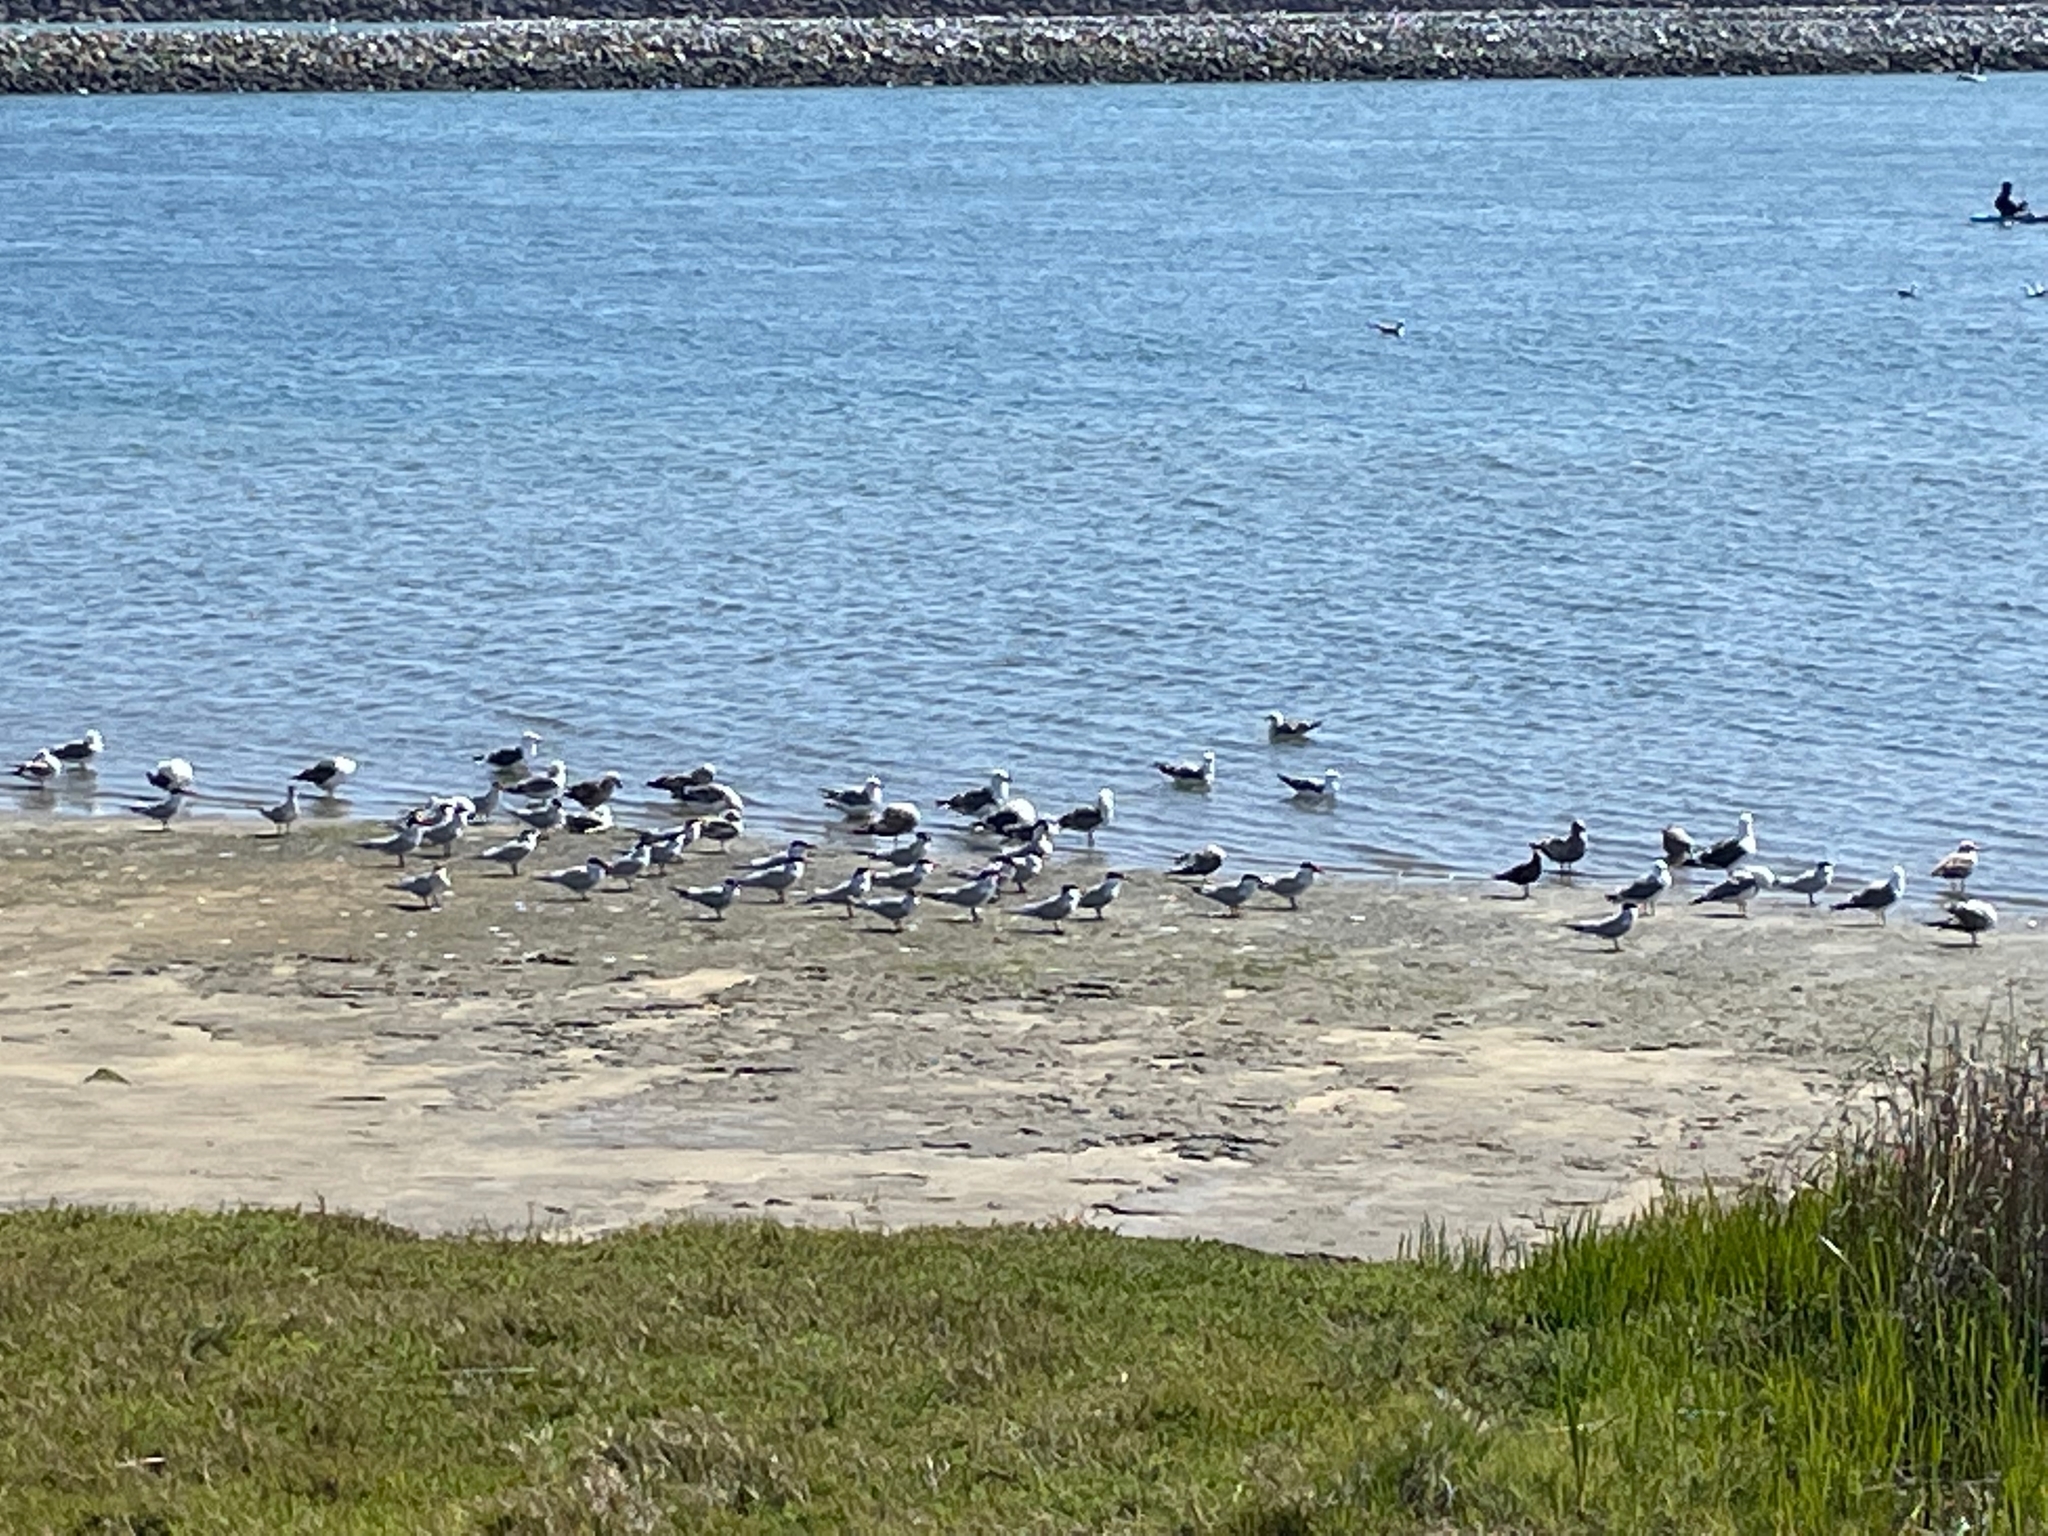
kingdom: Animalia
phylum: Chordata
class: Aves
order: Charadriiformes
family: Laridae
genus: Hydroprogne
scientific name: Hydroprogne caspia
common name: Caspian tern
